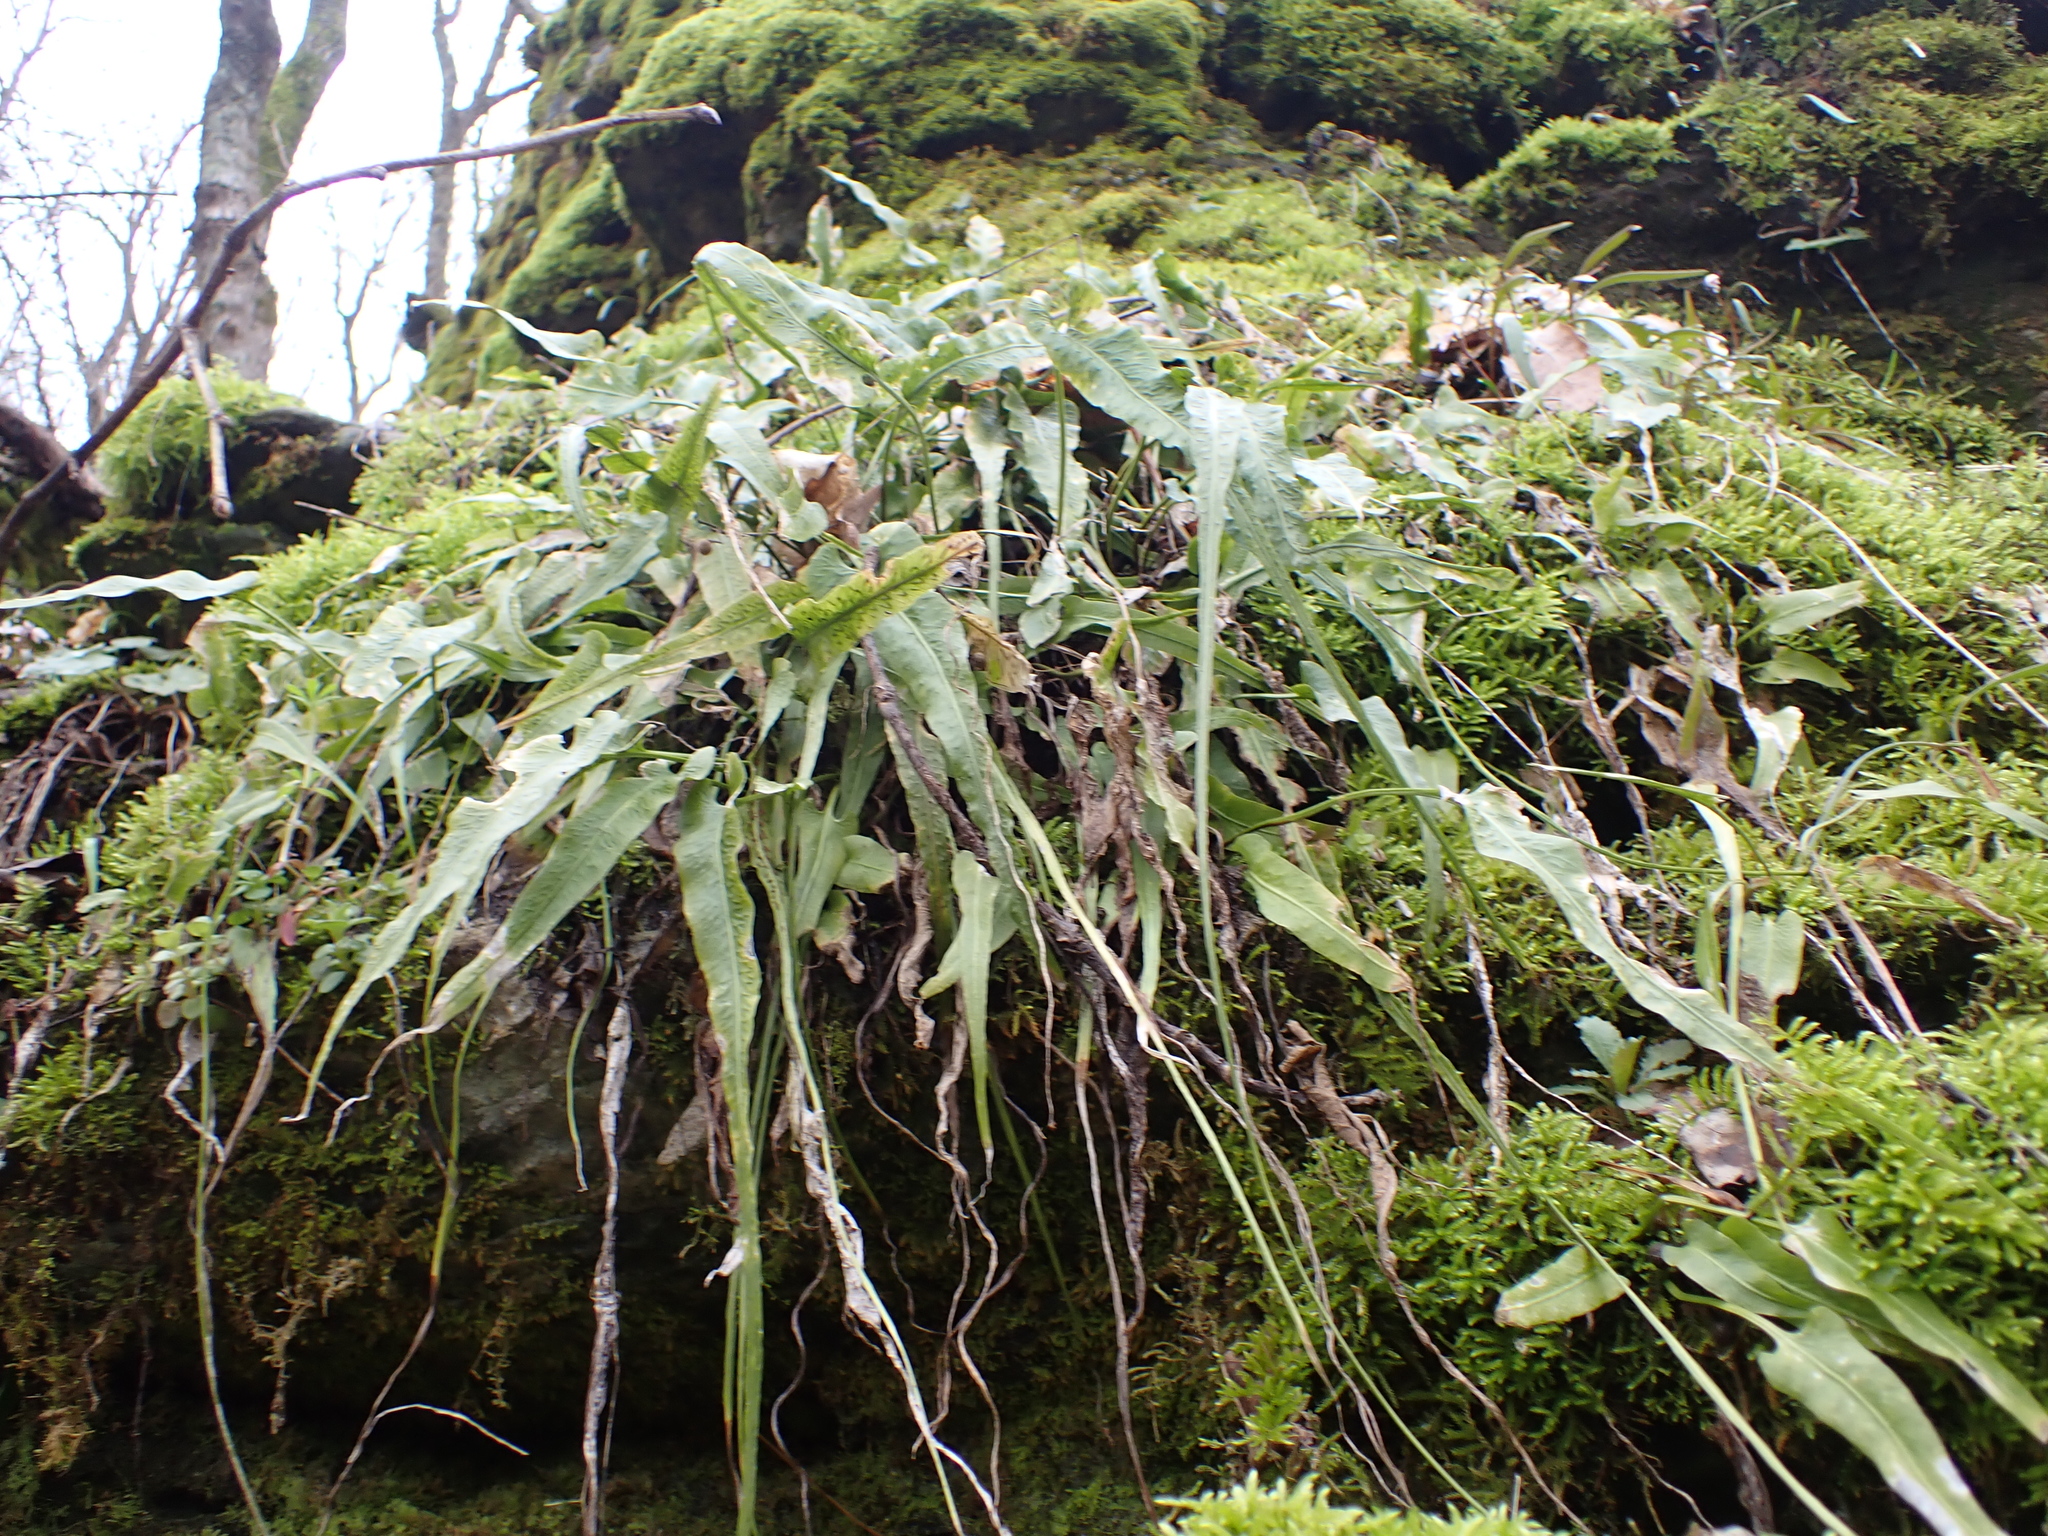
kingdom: Plantae
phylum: Tracheophyta
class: Polypodiopsida
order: Polypodiales
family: Aspleniaceae
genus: Asplenium
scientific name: Asplenium rhizophyllum
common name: Walking fern
